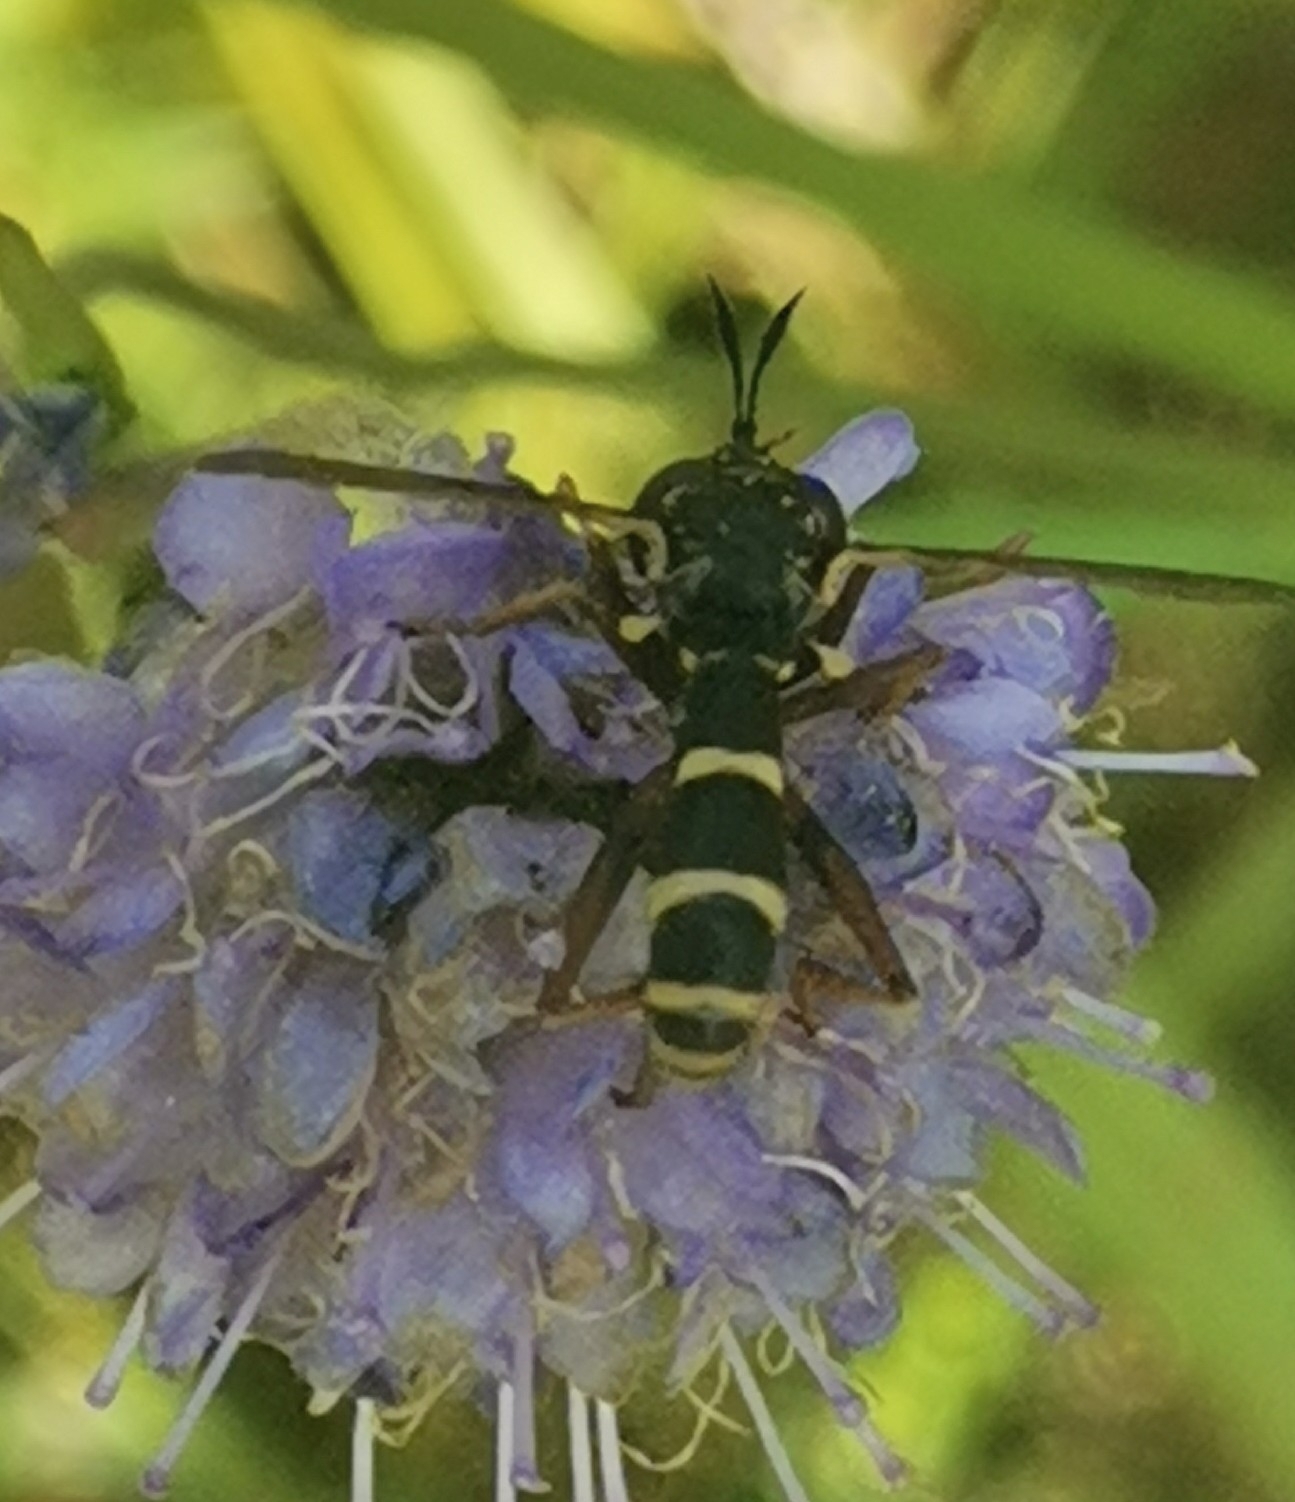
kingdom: Animalia
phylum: Arthropoda
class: Insecta
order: Diptera
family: Conopidae
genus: Conops
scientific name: Conops quadrifasciatus
